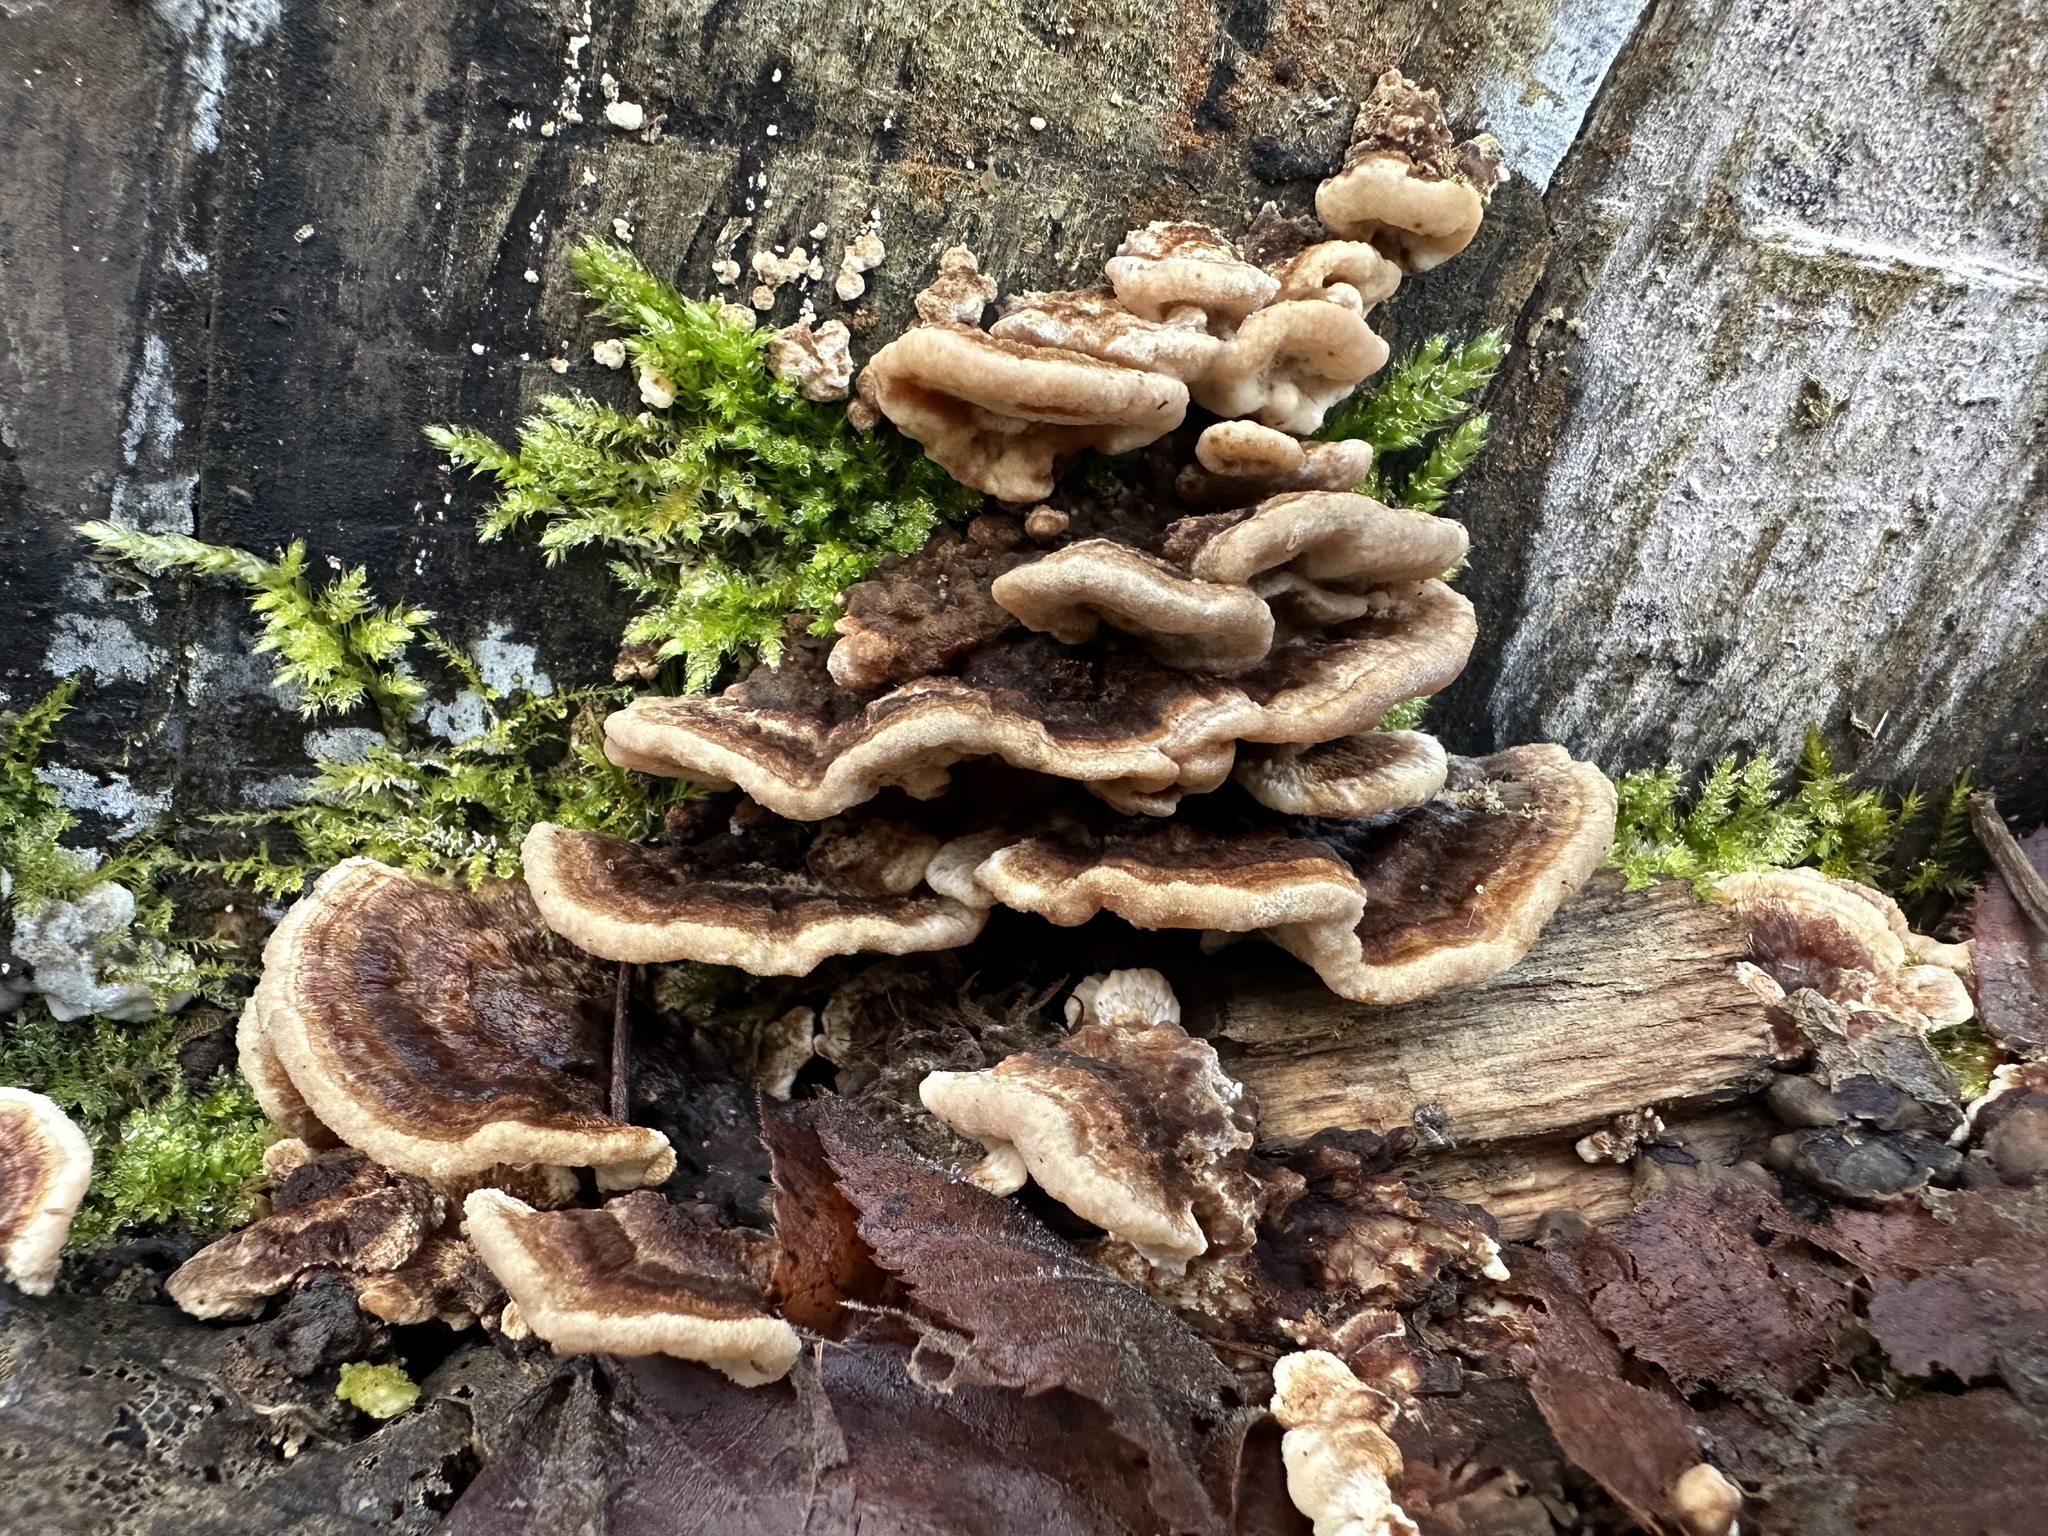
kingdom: Fungi
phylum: Basidiomycota
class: Agaricomycetes
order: Polyporales
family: Polyporaceae
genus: Trametes
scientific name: Trametes versicolor
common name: Turkeytail
